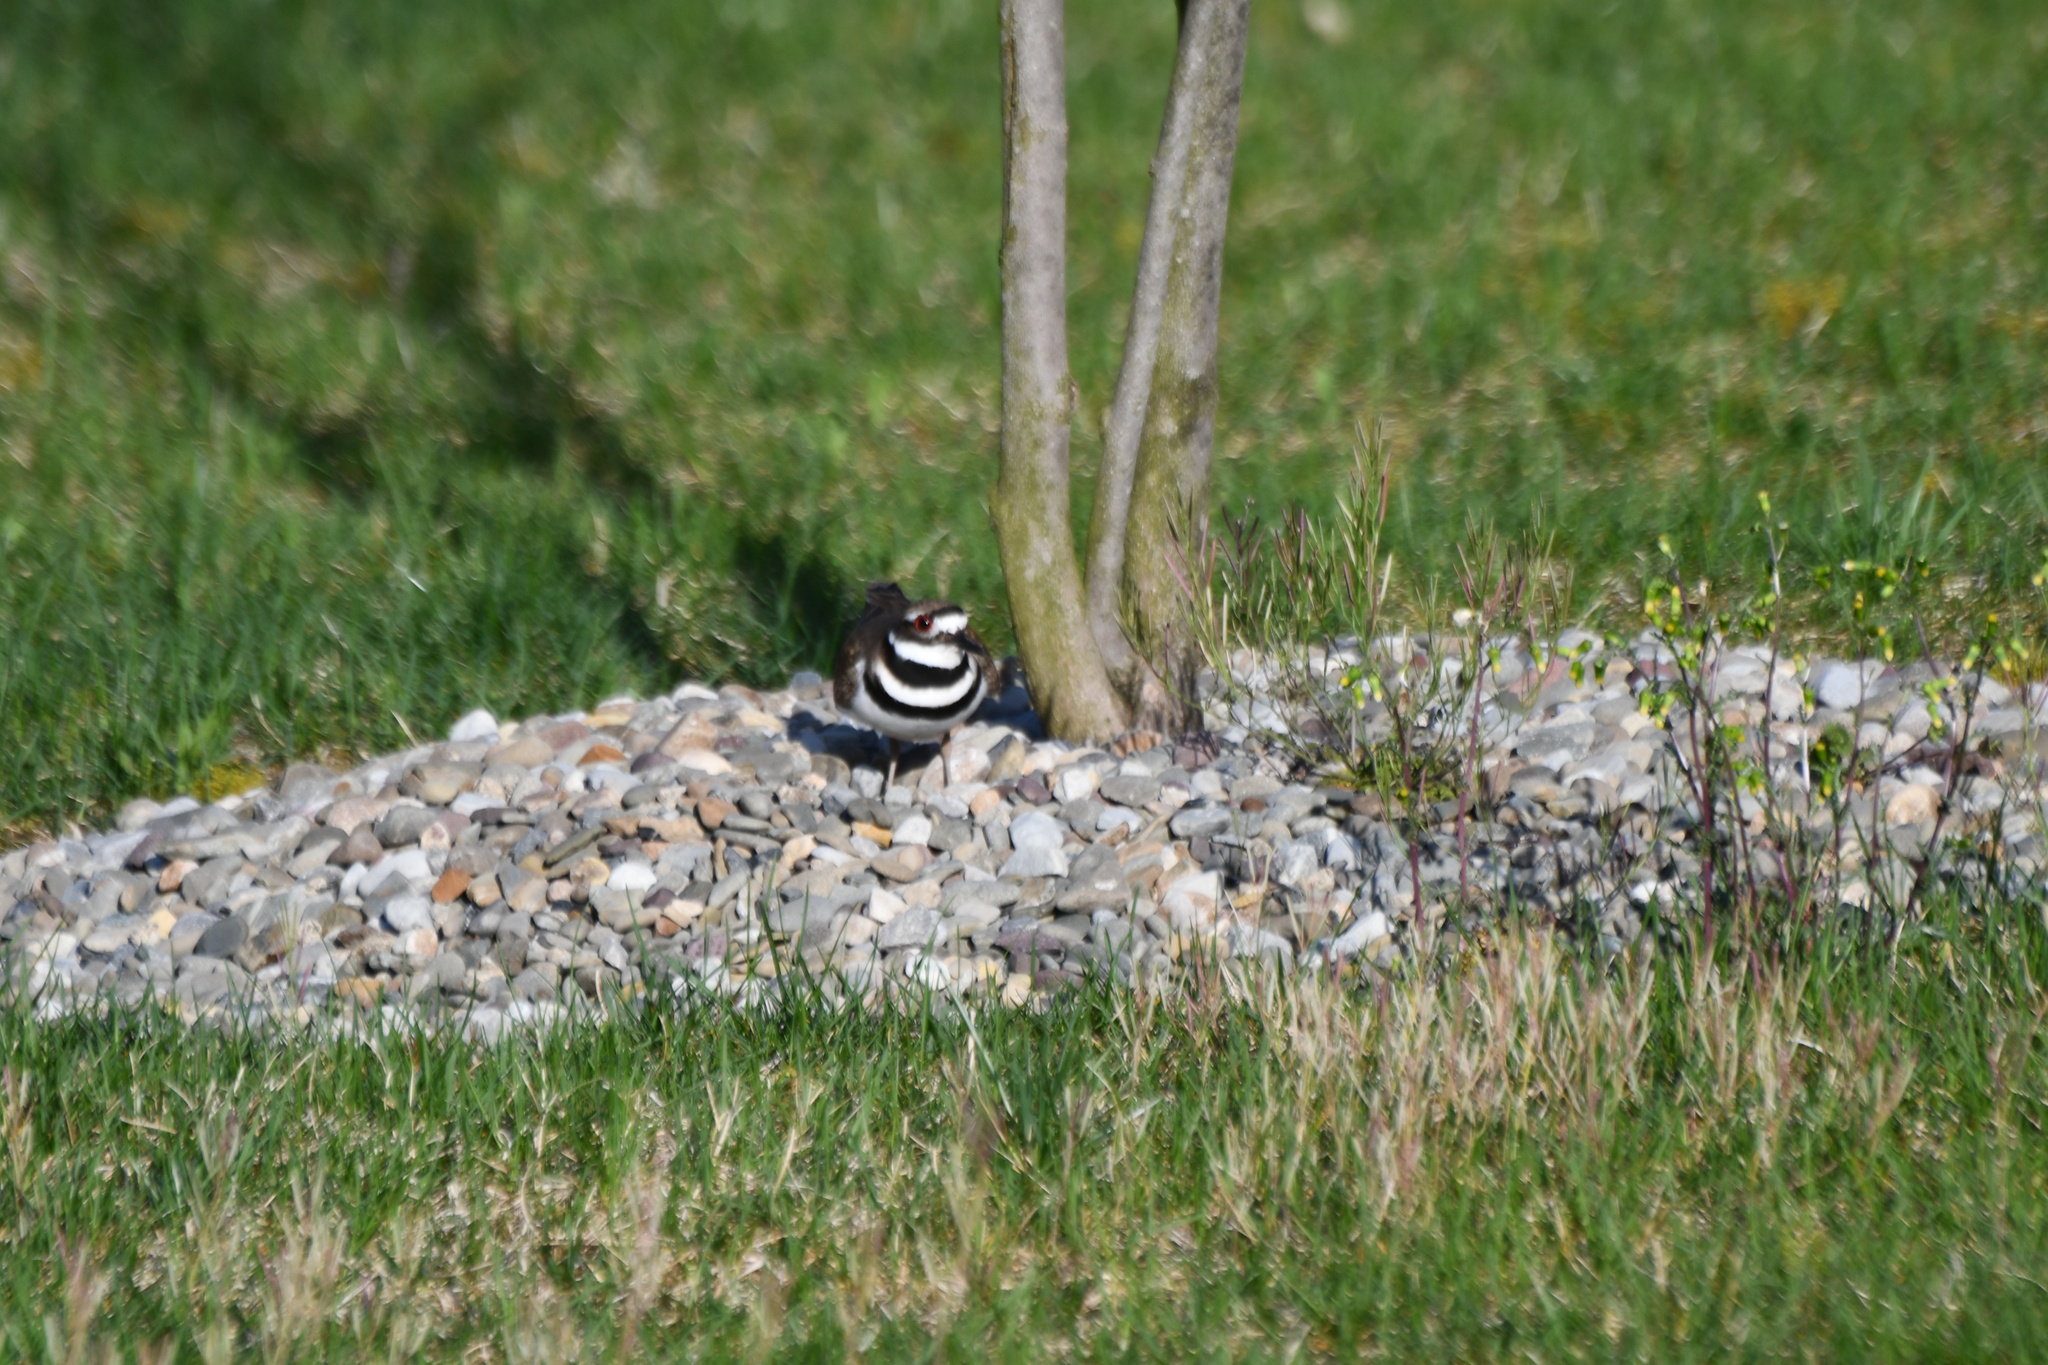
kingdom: Animalia
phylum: Chordata
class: Aves
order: Charadriiformes
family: Charadriidae
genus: Charadrius
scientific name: Charadrius vociferus
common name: Killdeer
